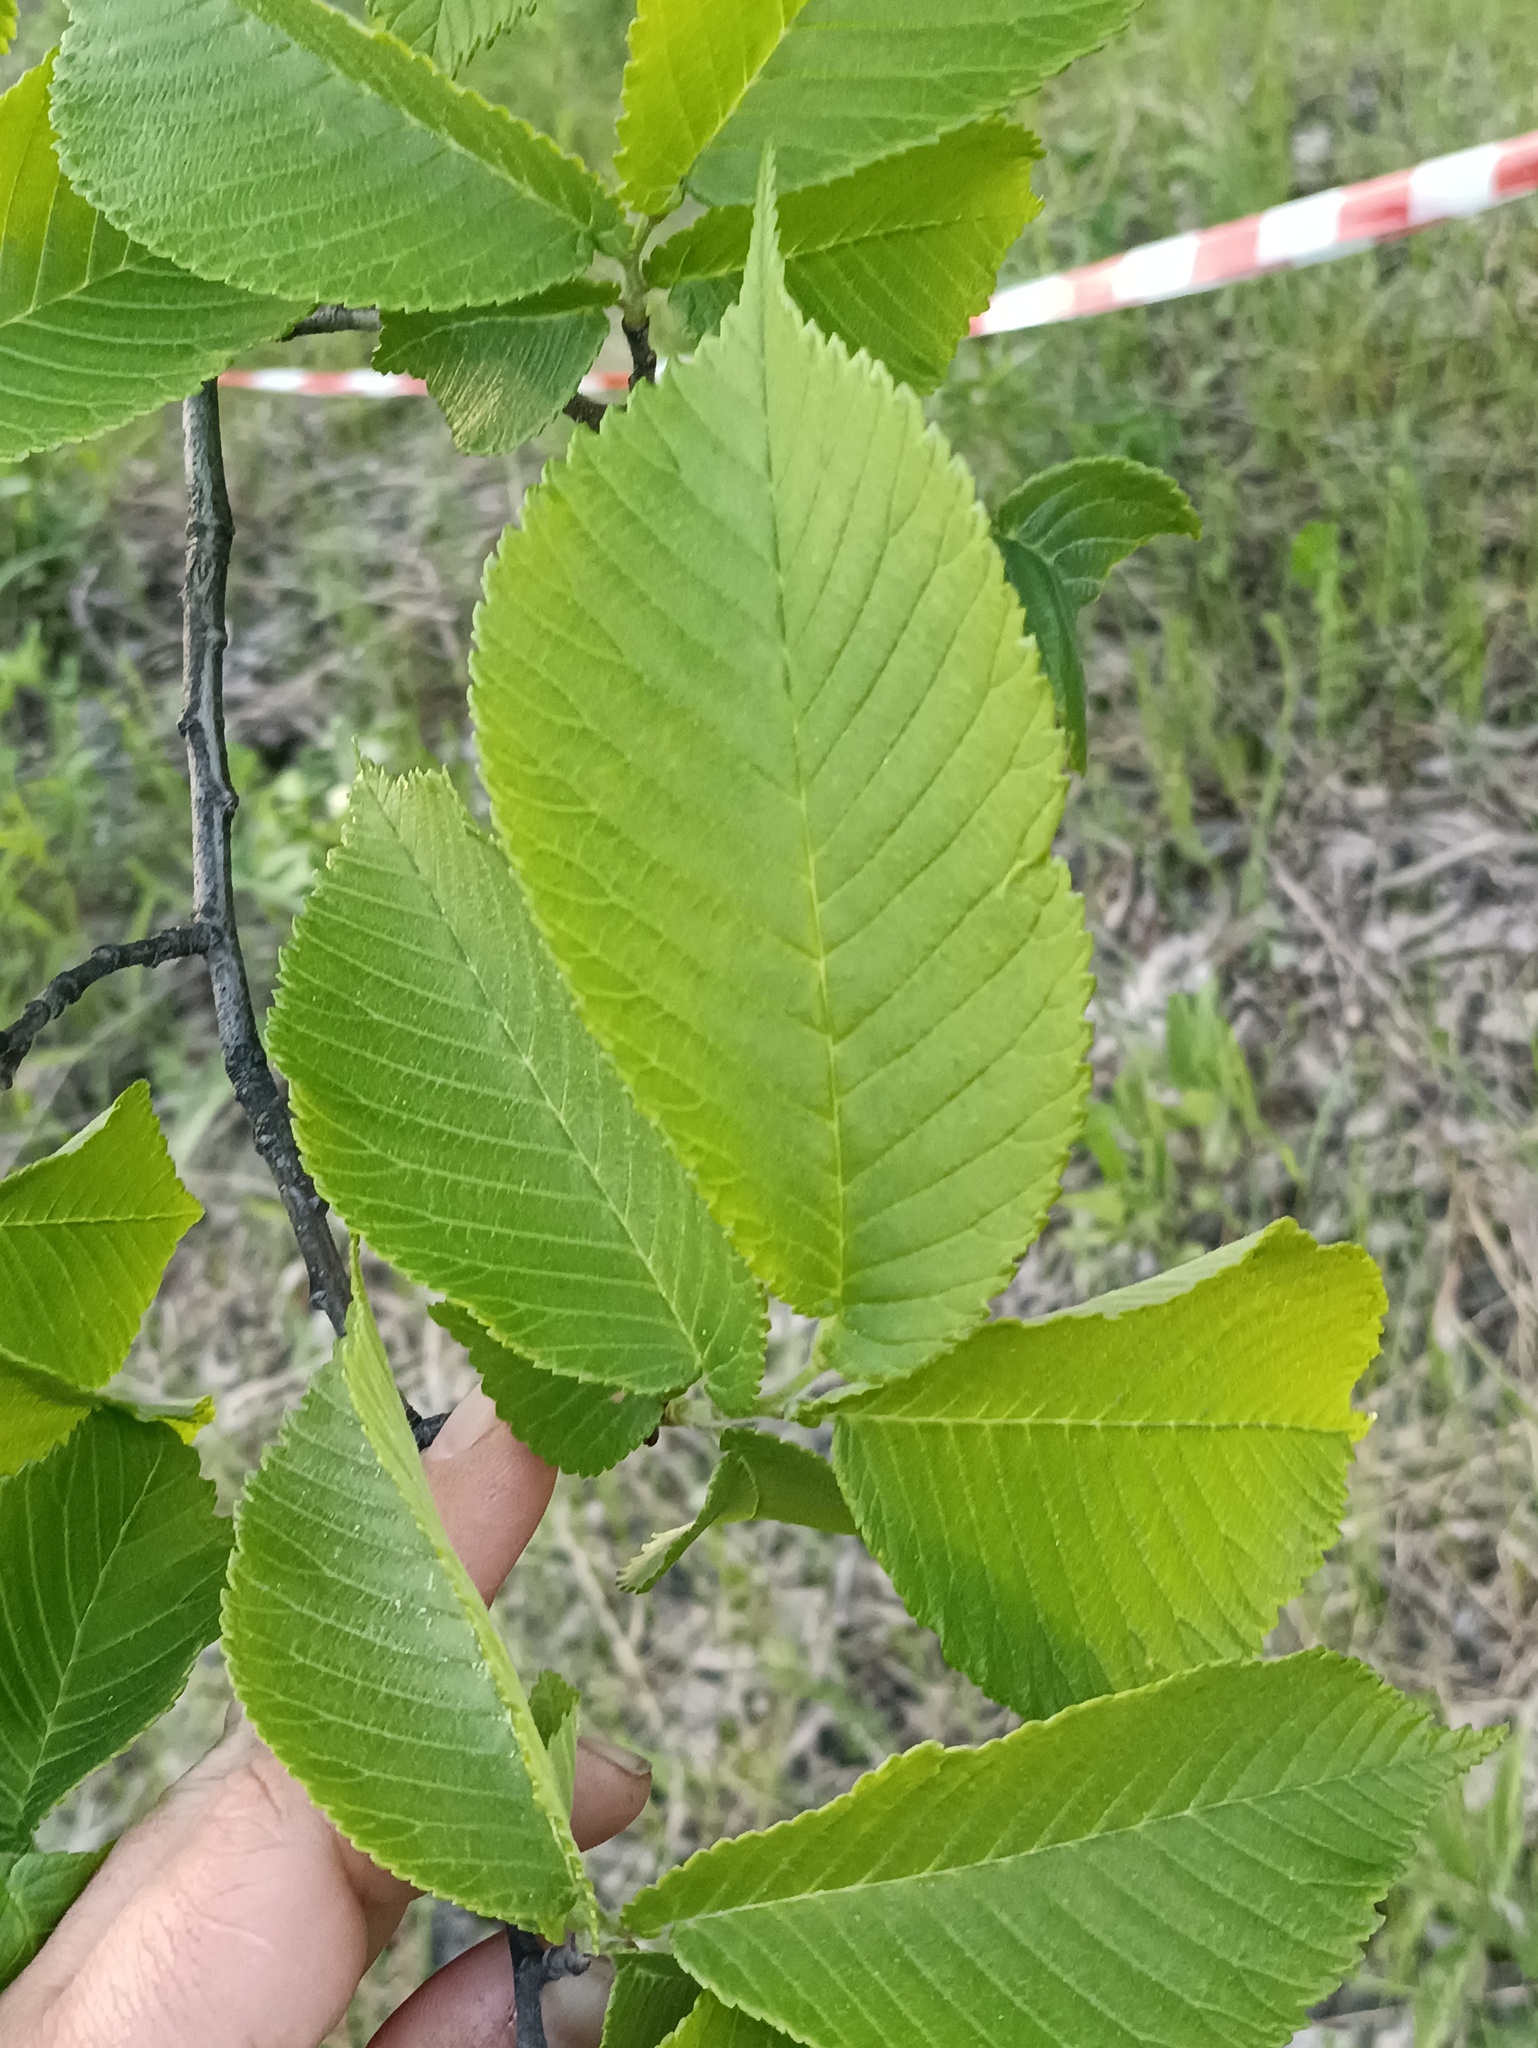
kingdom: Plantae
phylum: Tracheophyta
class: Magnoliopsida
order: Rosales
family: Ulmaceae
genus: Ulmus
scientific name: Ulmus glabra
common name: Wych elm
